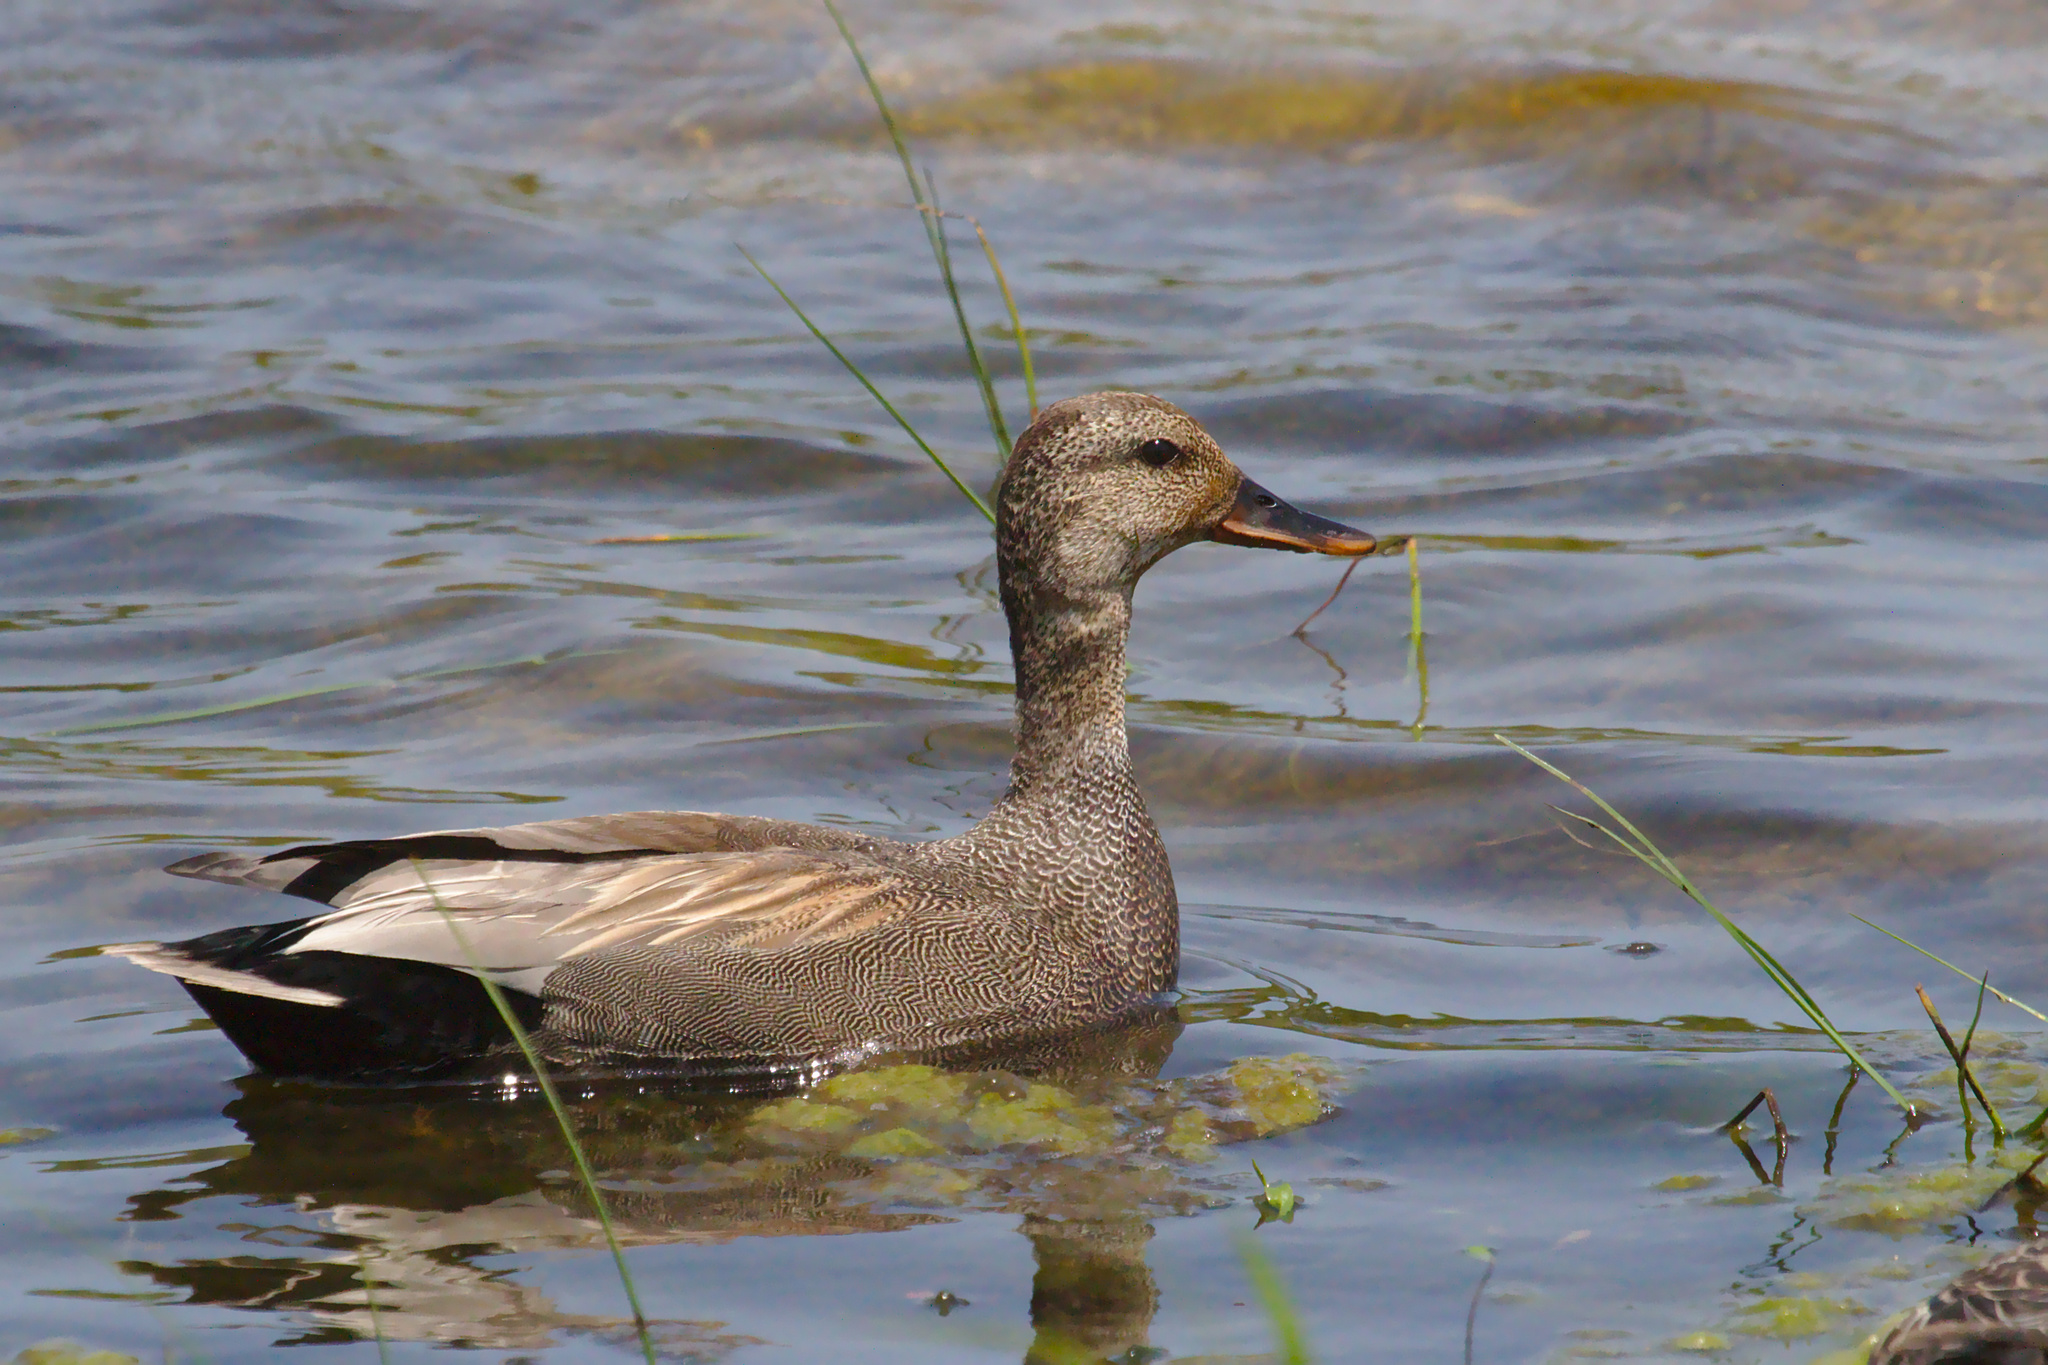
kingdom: Animalia
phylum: Chordata
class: Aves
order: Anseriformes
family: Anatidae
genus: Mareca
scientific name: Mareca strepera
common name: Gadwall
